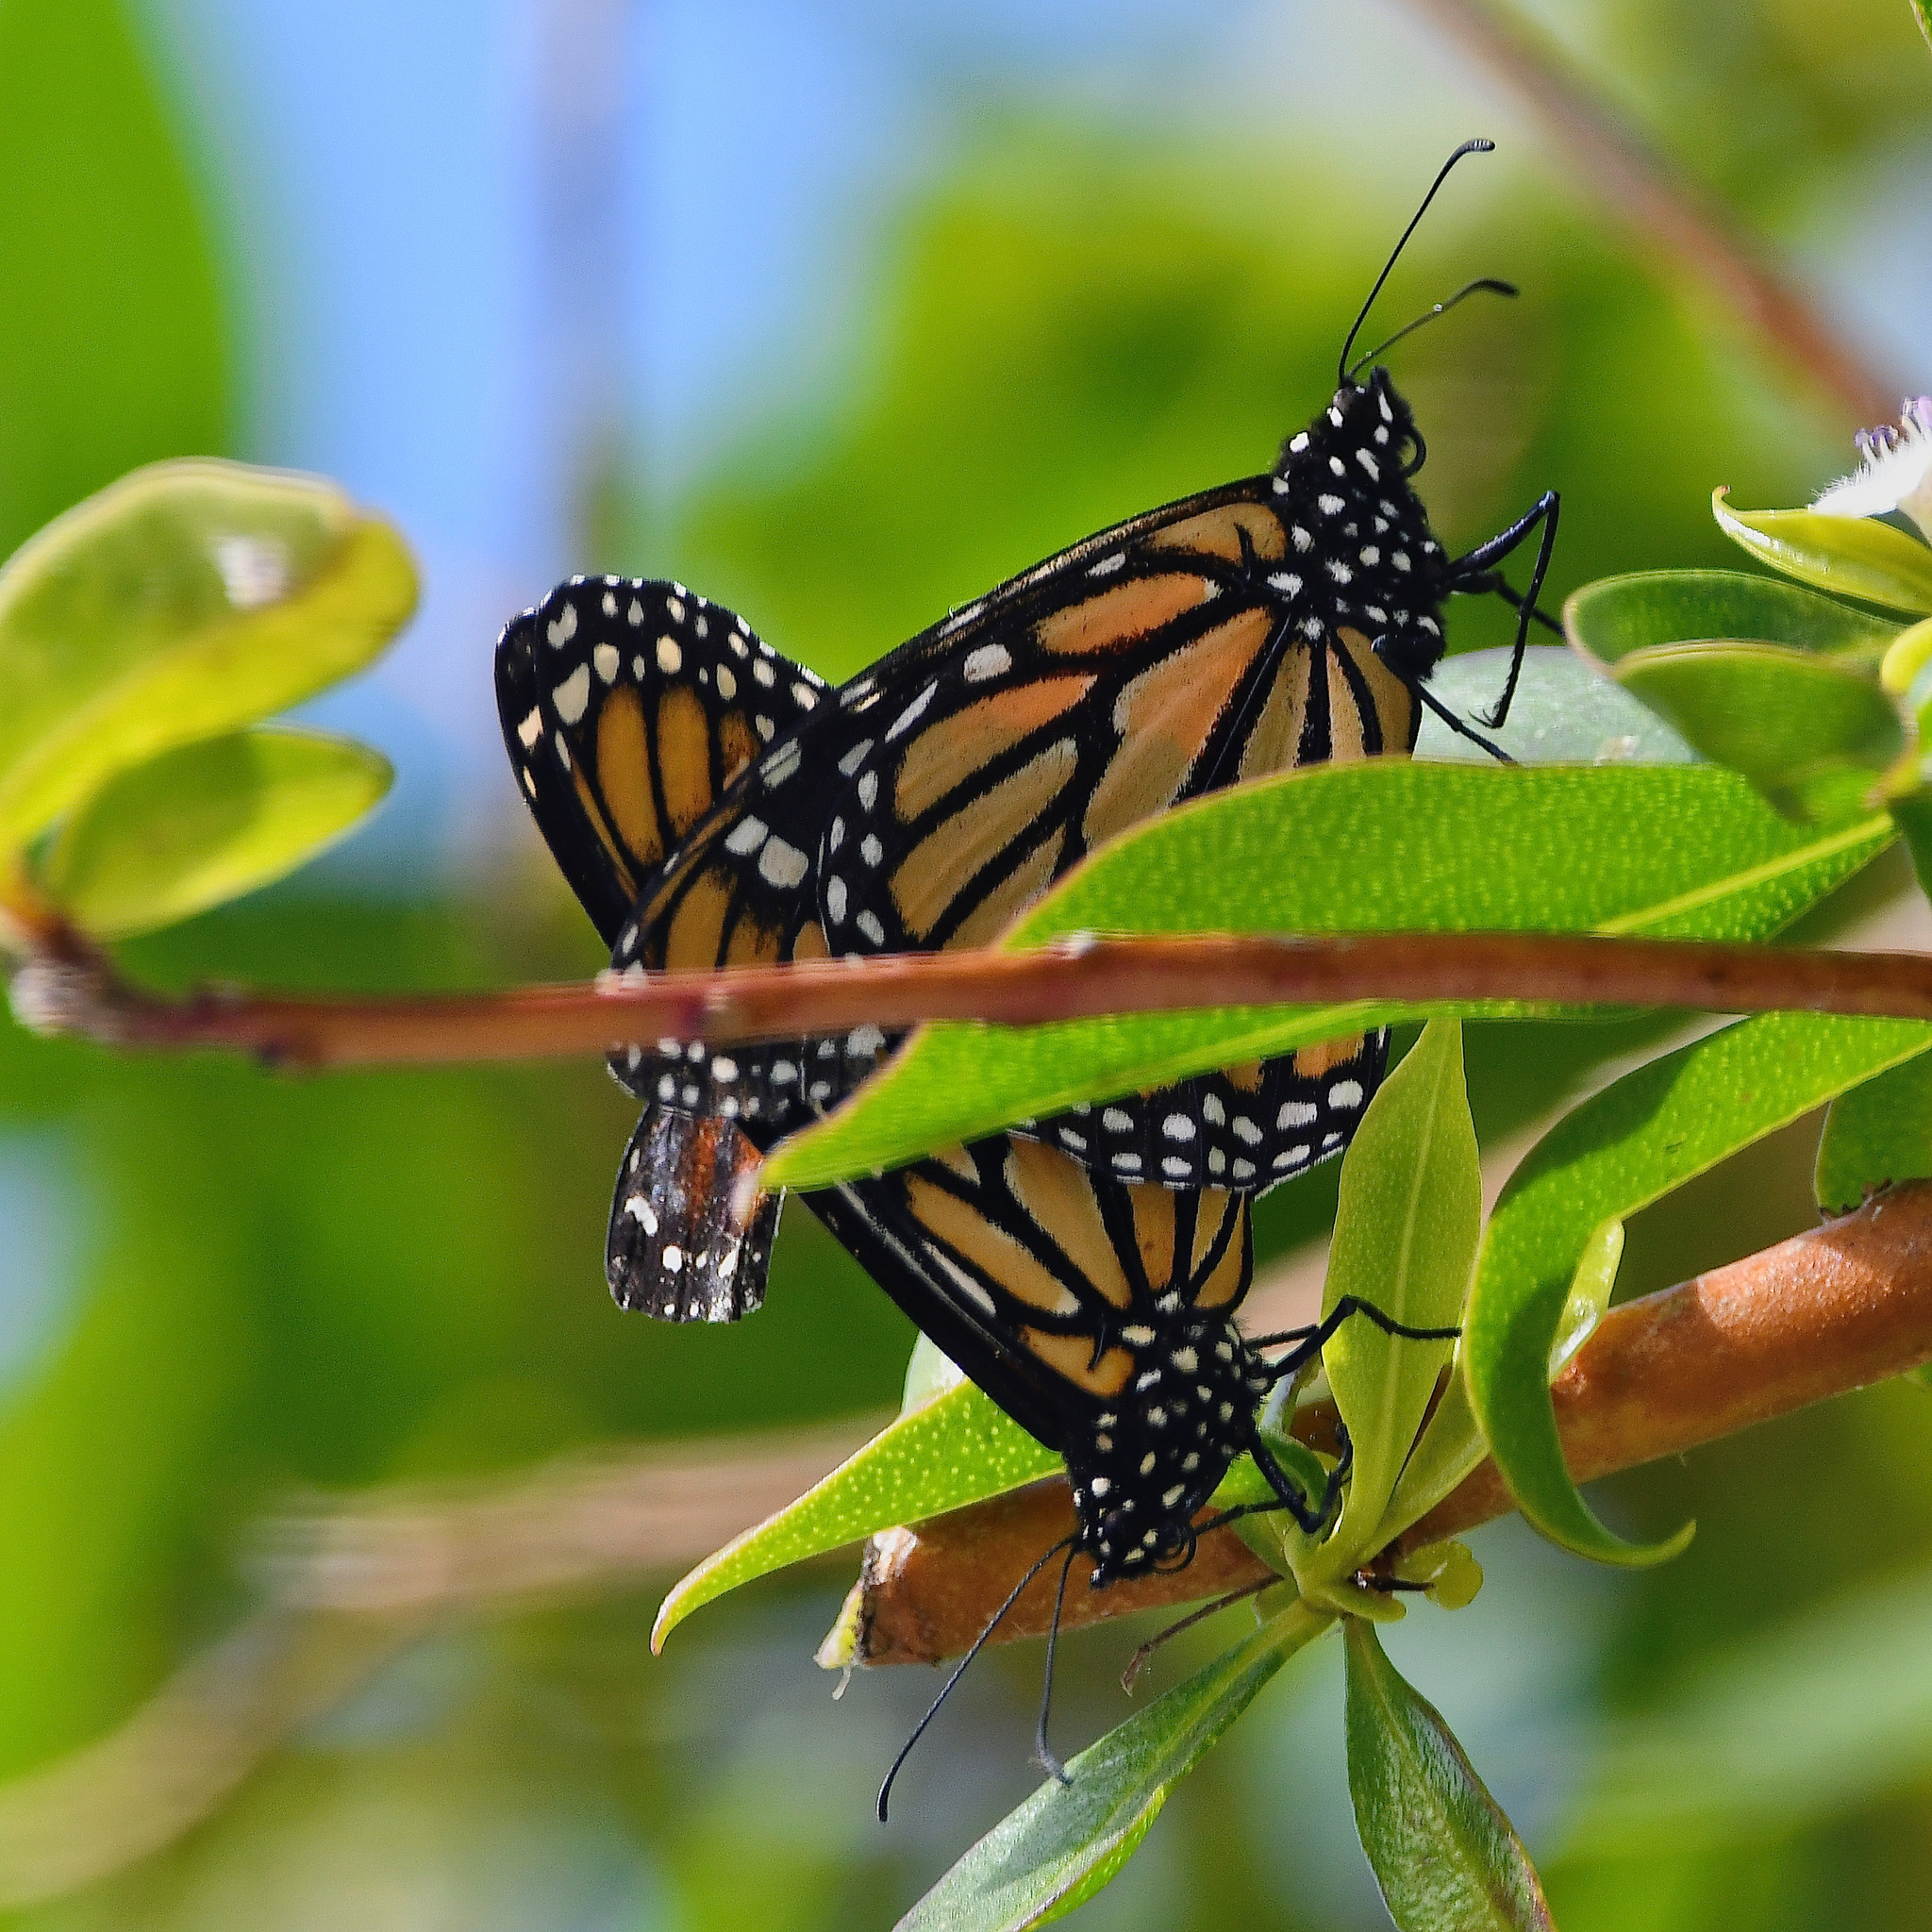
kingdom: Animalia
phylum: Arthropoda
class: Insecta
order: Lepidoptera
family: Nymphalidae
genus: Danaus
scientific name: Danaus plexippus
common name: Monarch
